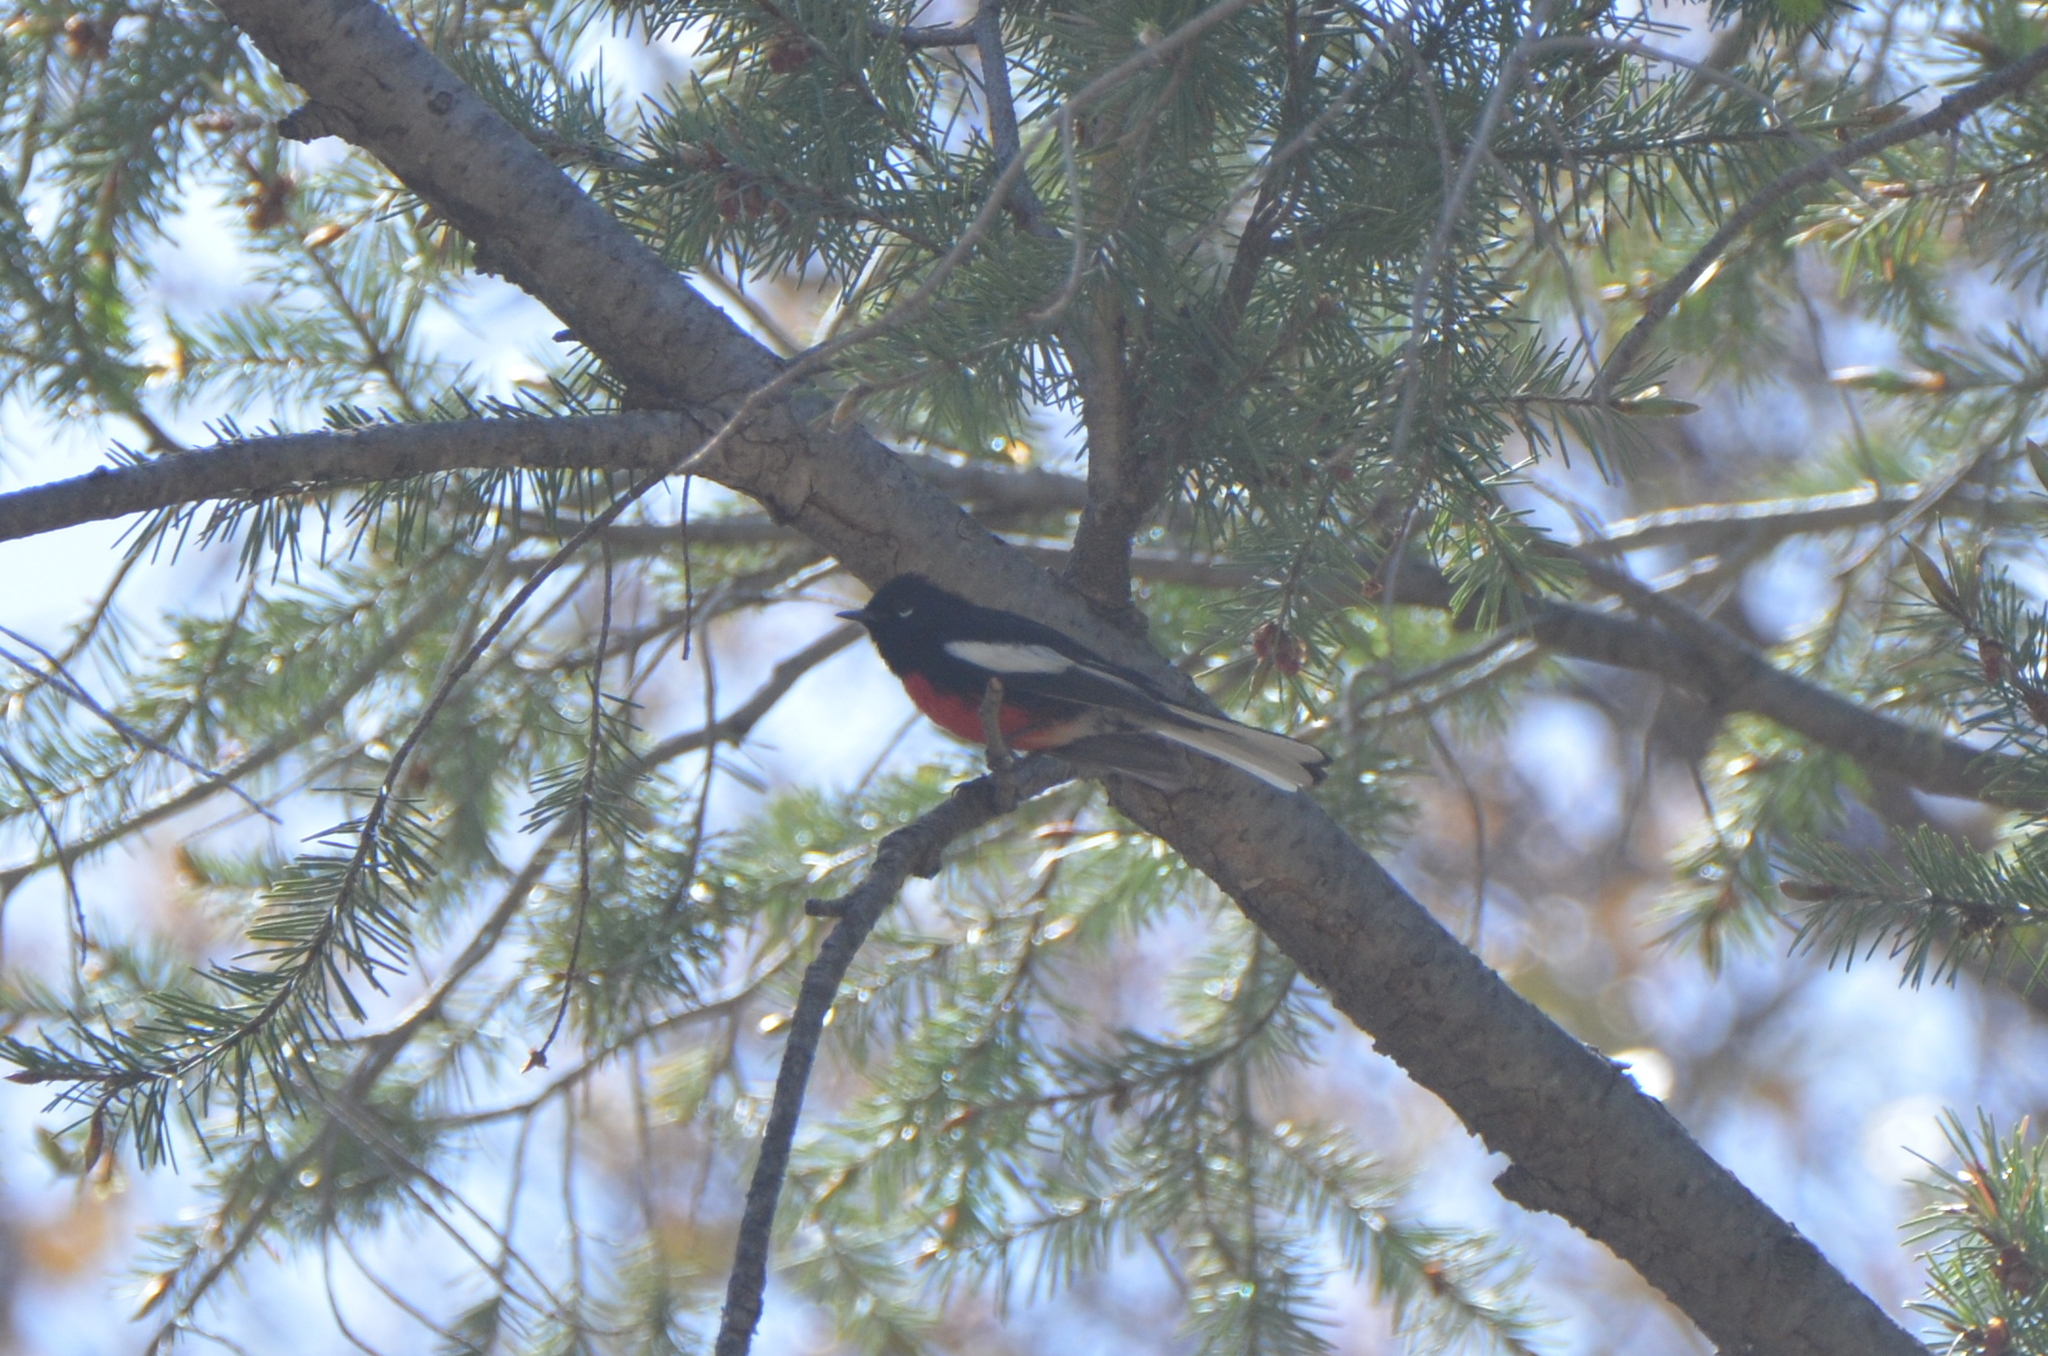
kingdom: Animalia
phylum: Chordata
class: Aves
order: Passeriformes
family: Parulidae
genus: Myioborus
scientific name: Myioborus pictus
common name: Painted whitestart
